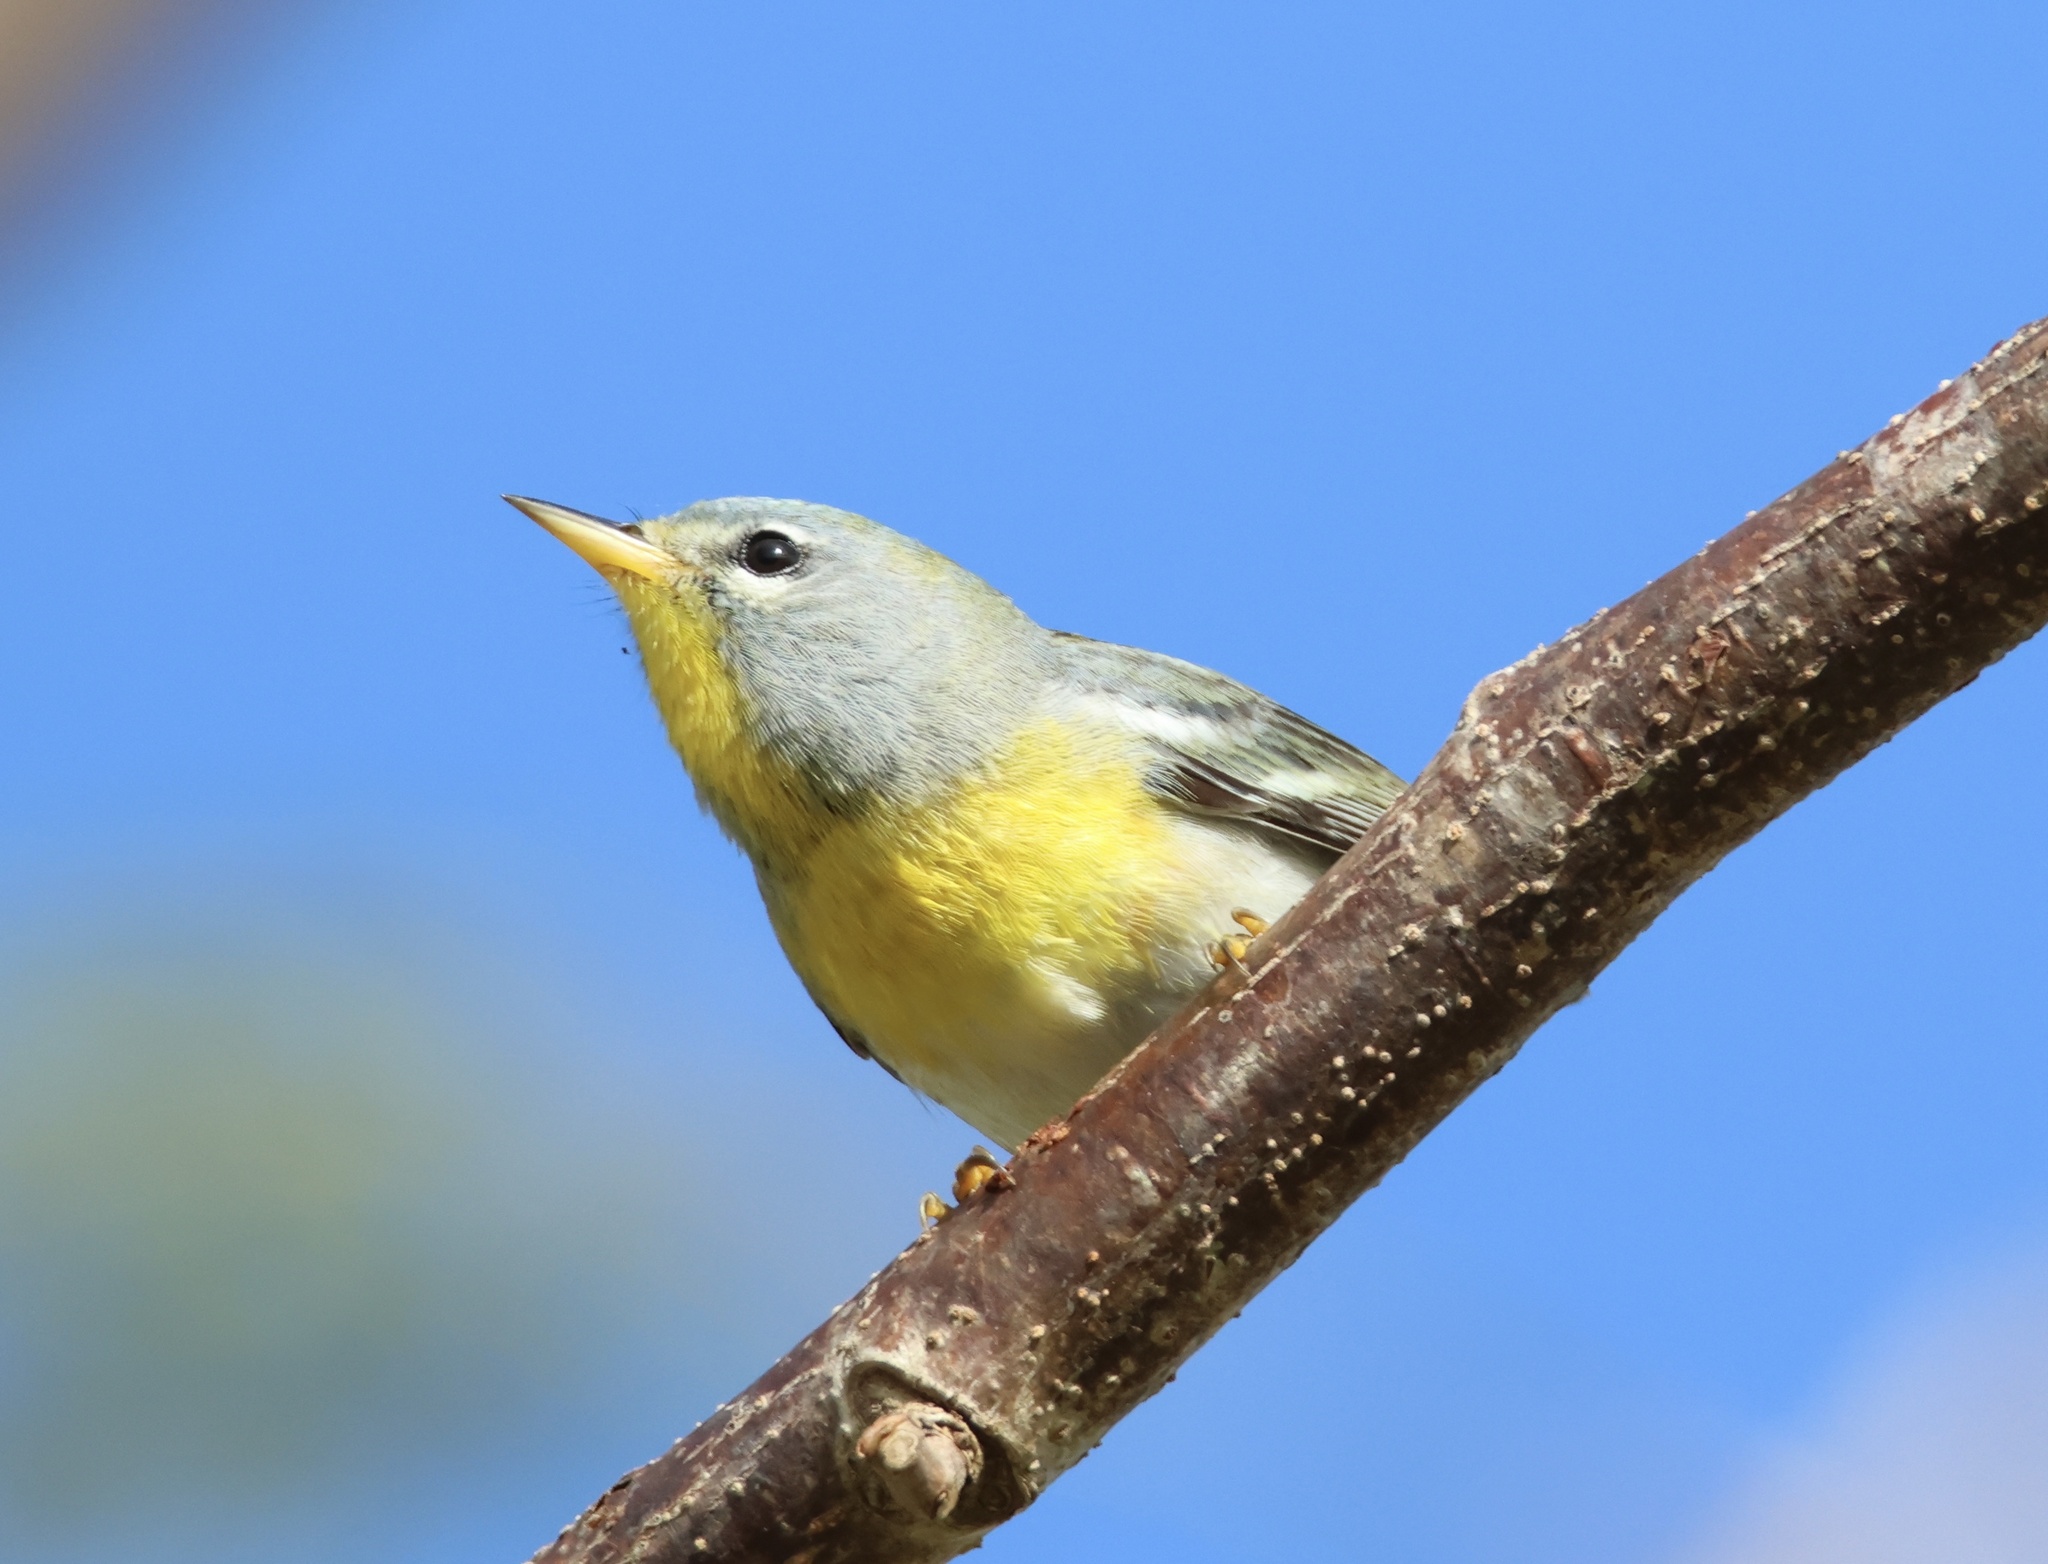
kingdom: Animalia
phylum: Chordata
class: Aves
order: Passeriformes
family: Parulidae
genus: Setophaga
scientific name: Setophaga americana
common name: Northern parula
